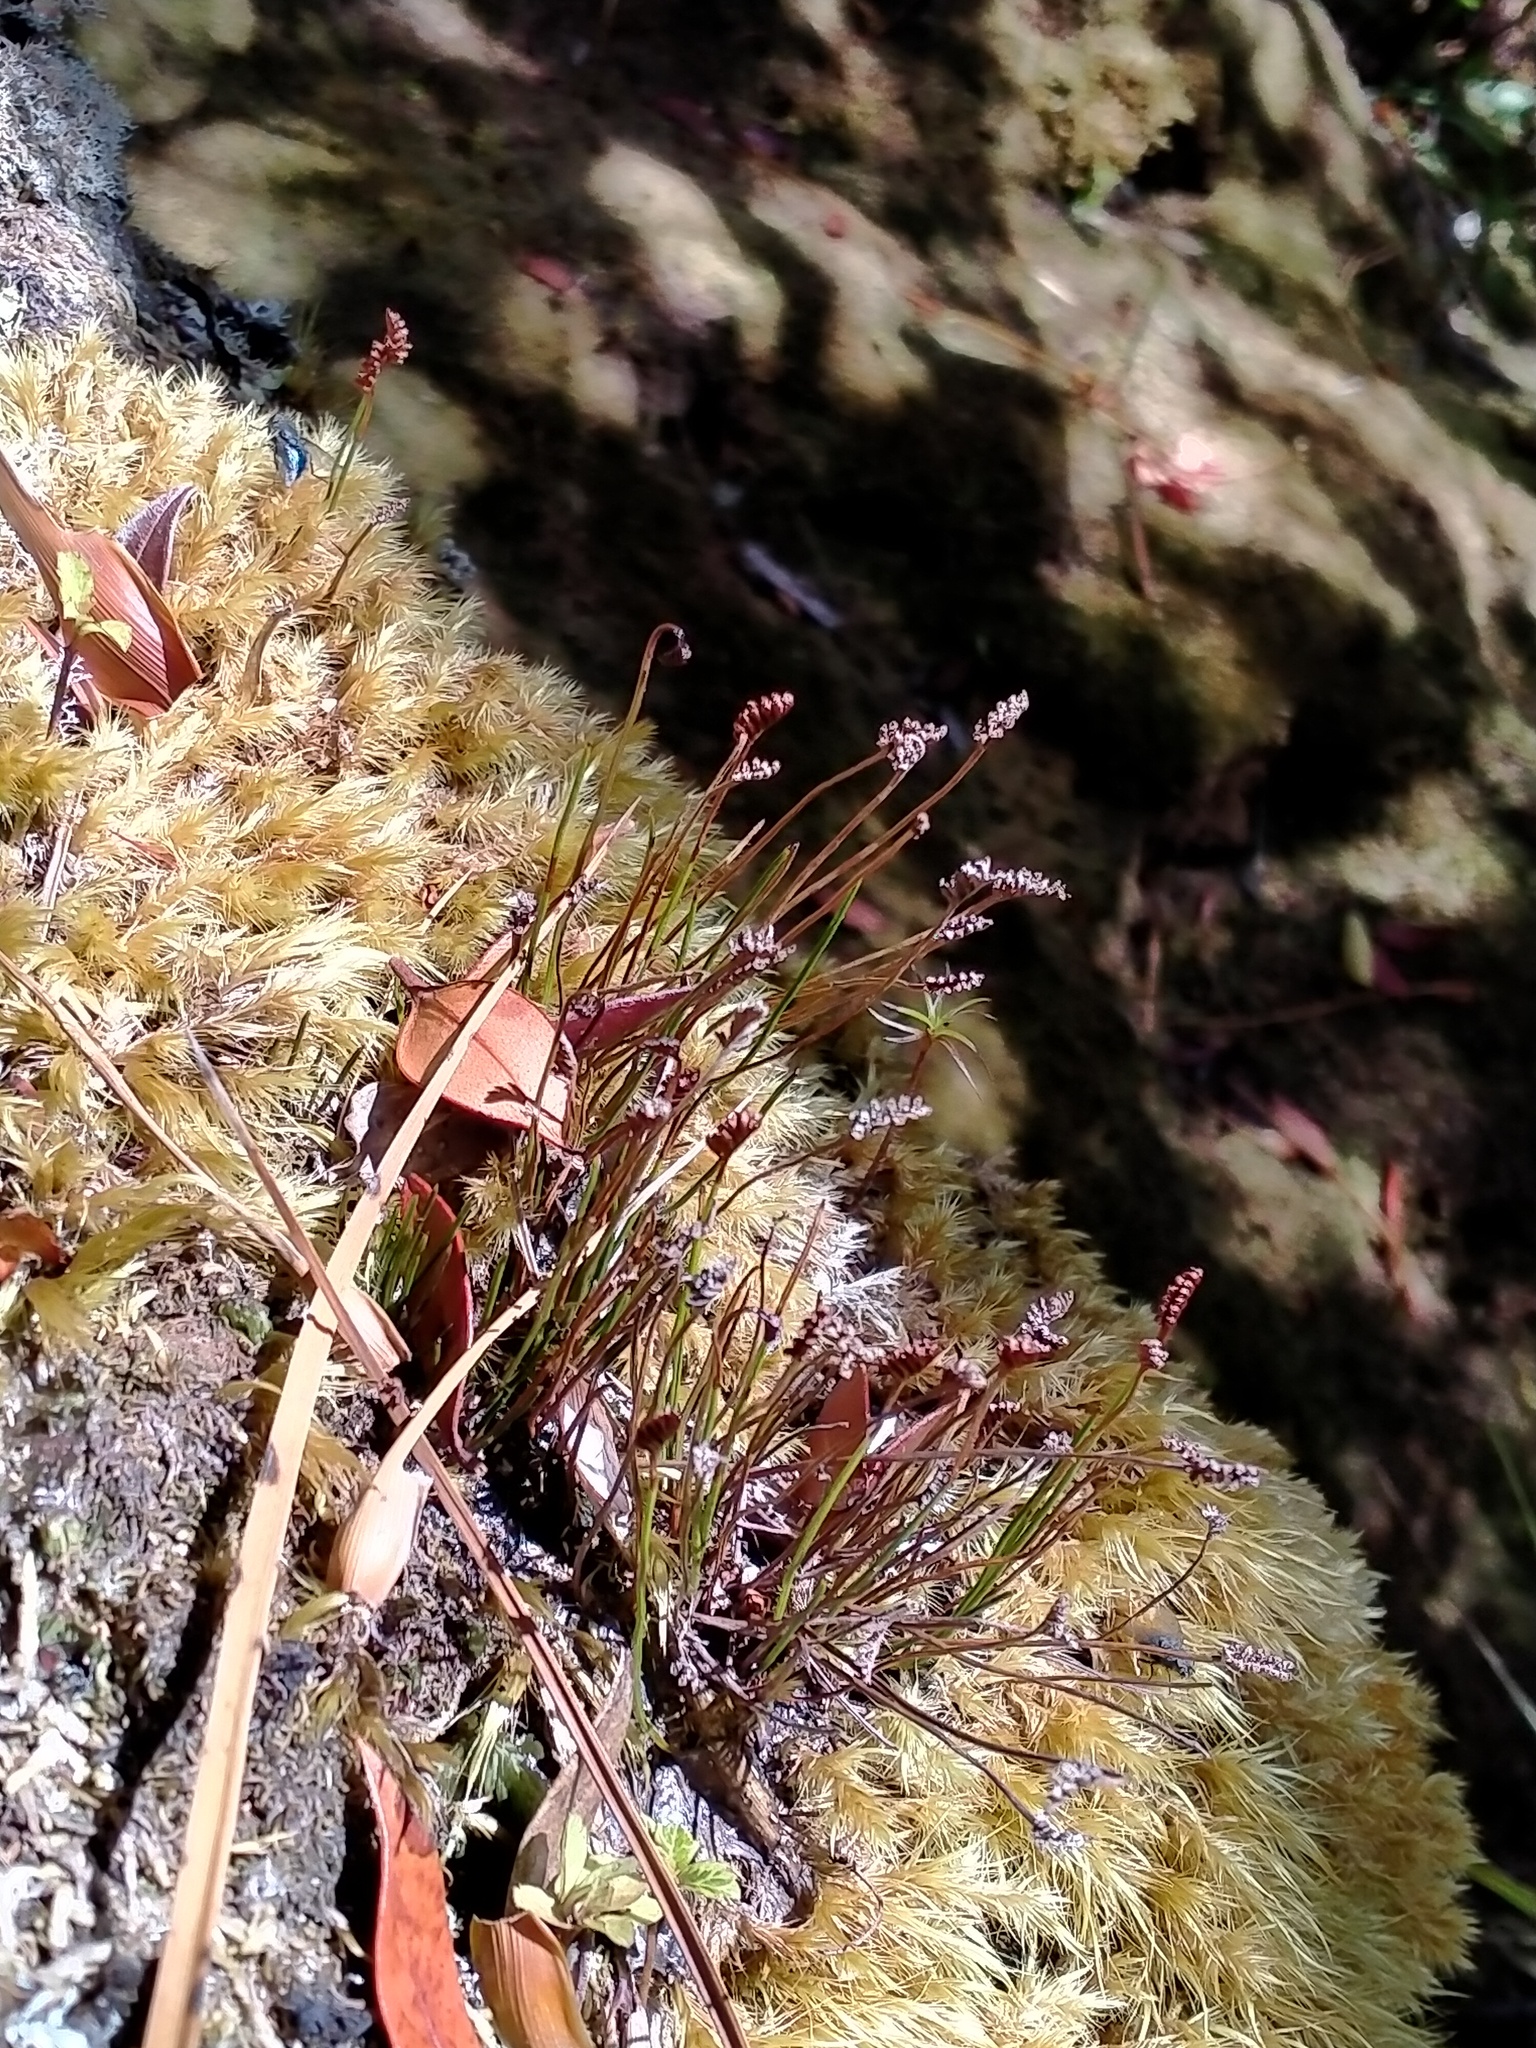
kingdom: Plantae
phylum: Tracheophyta
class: Polypodiopsida
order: Schizaeales
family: Schizaeaceae
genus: Microschizaea
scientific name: Microschizaea australis
